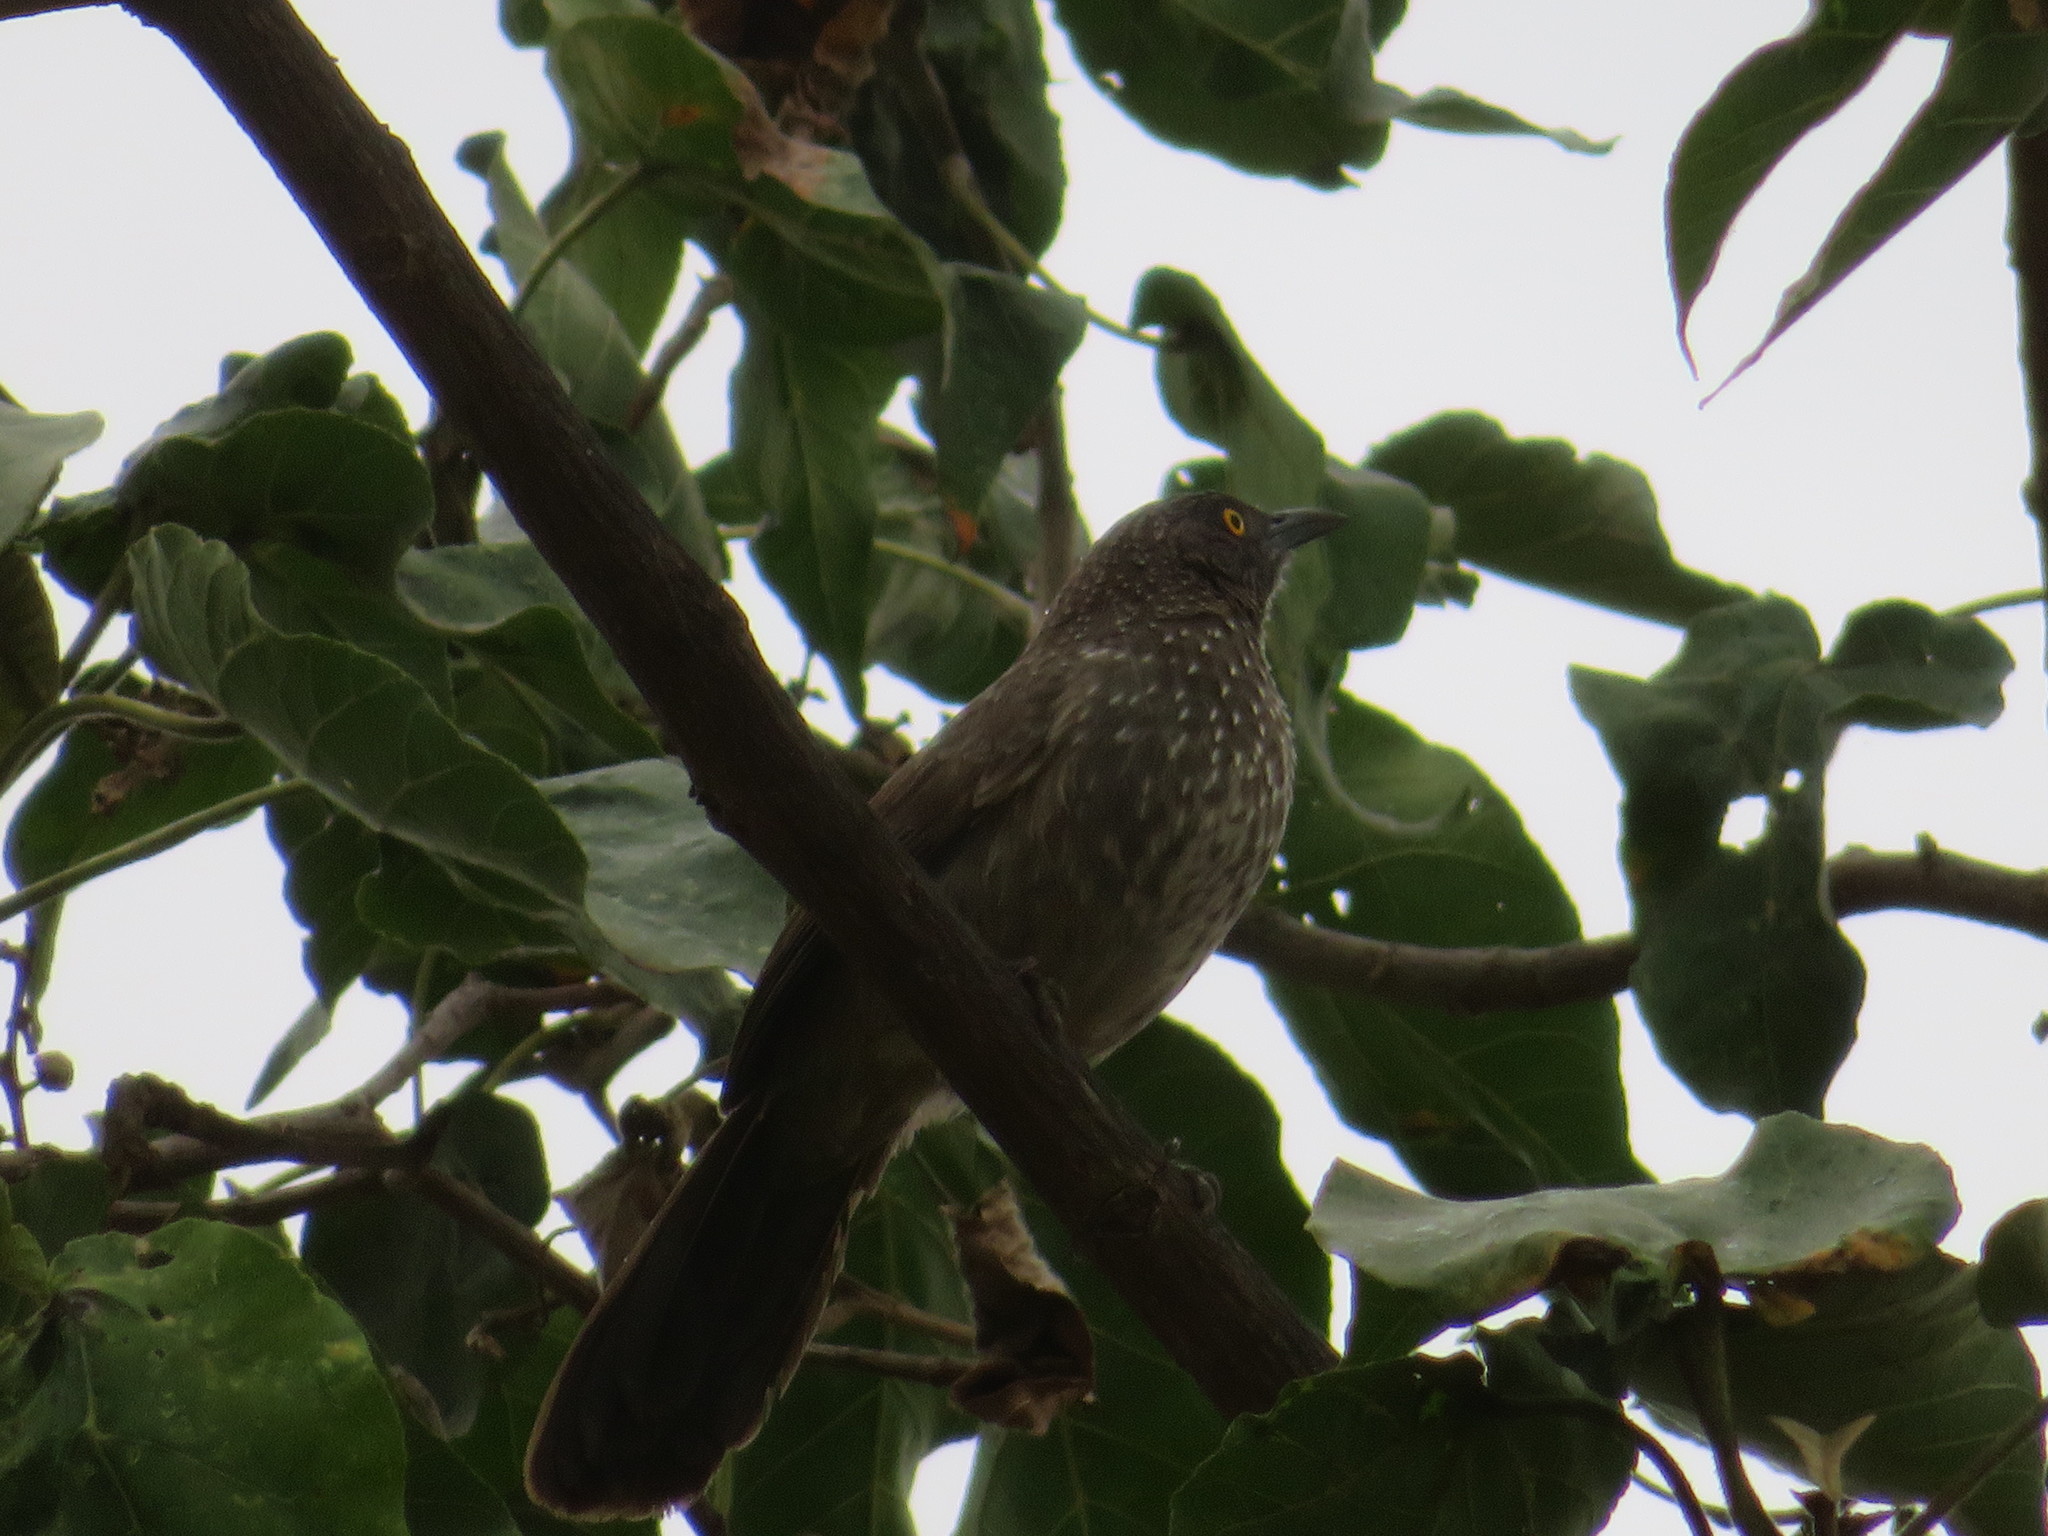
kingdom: Animalia
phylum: Chordata
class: Aves
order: Passeriformes
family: Leiothrichidae
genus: Turdoides
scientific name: Turdoides jardineii
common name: Arrow-marked babbler
